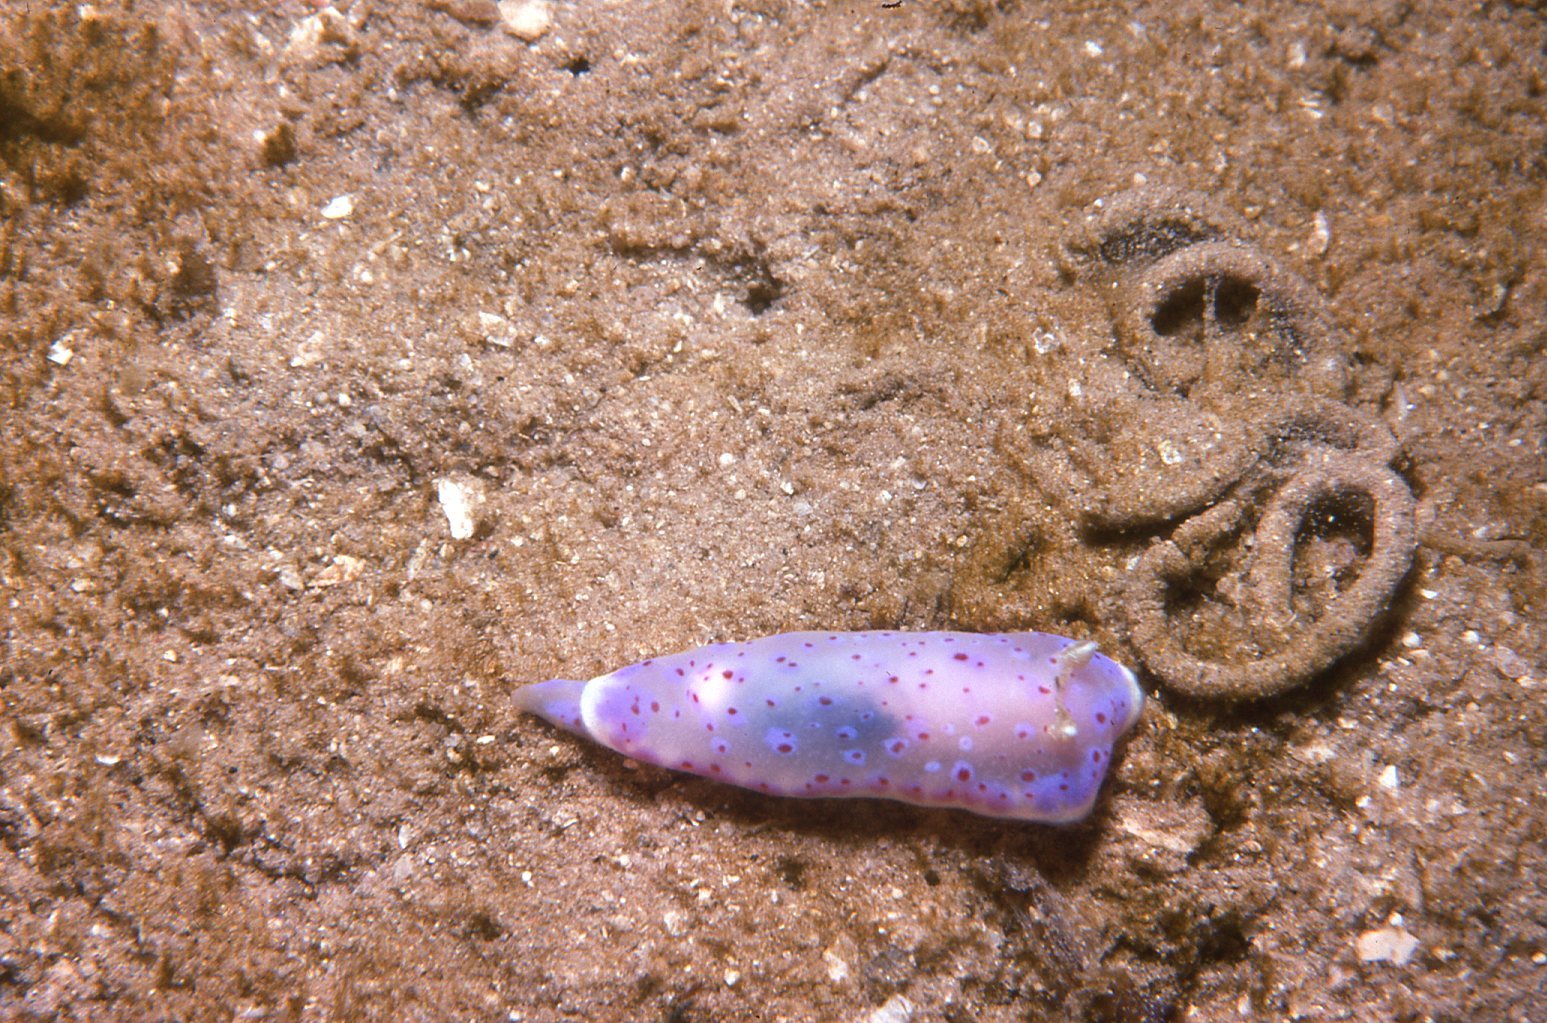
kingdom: Animalia
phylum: Mollusca
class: Gastropoda
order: Nudibranchia
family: Chromodorididae
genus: Goniobranchus
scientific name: Goniobranchus thompsoni
